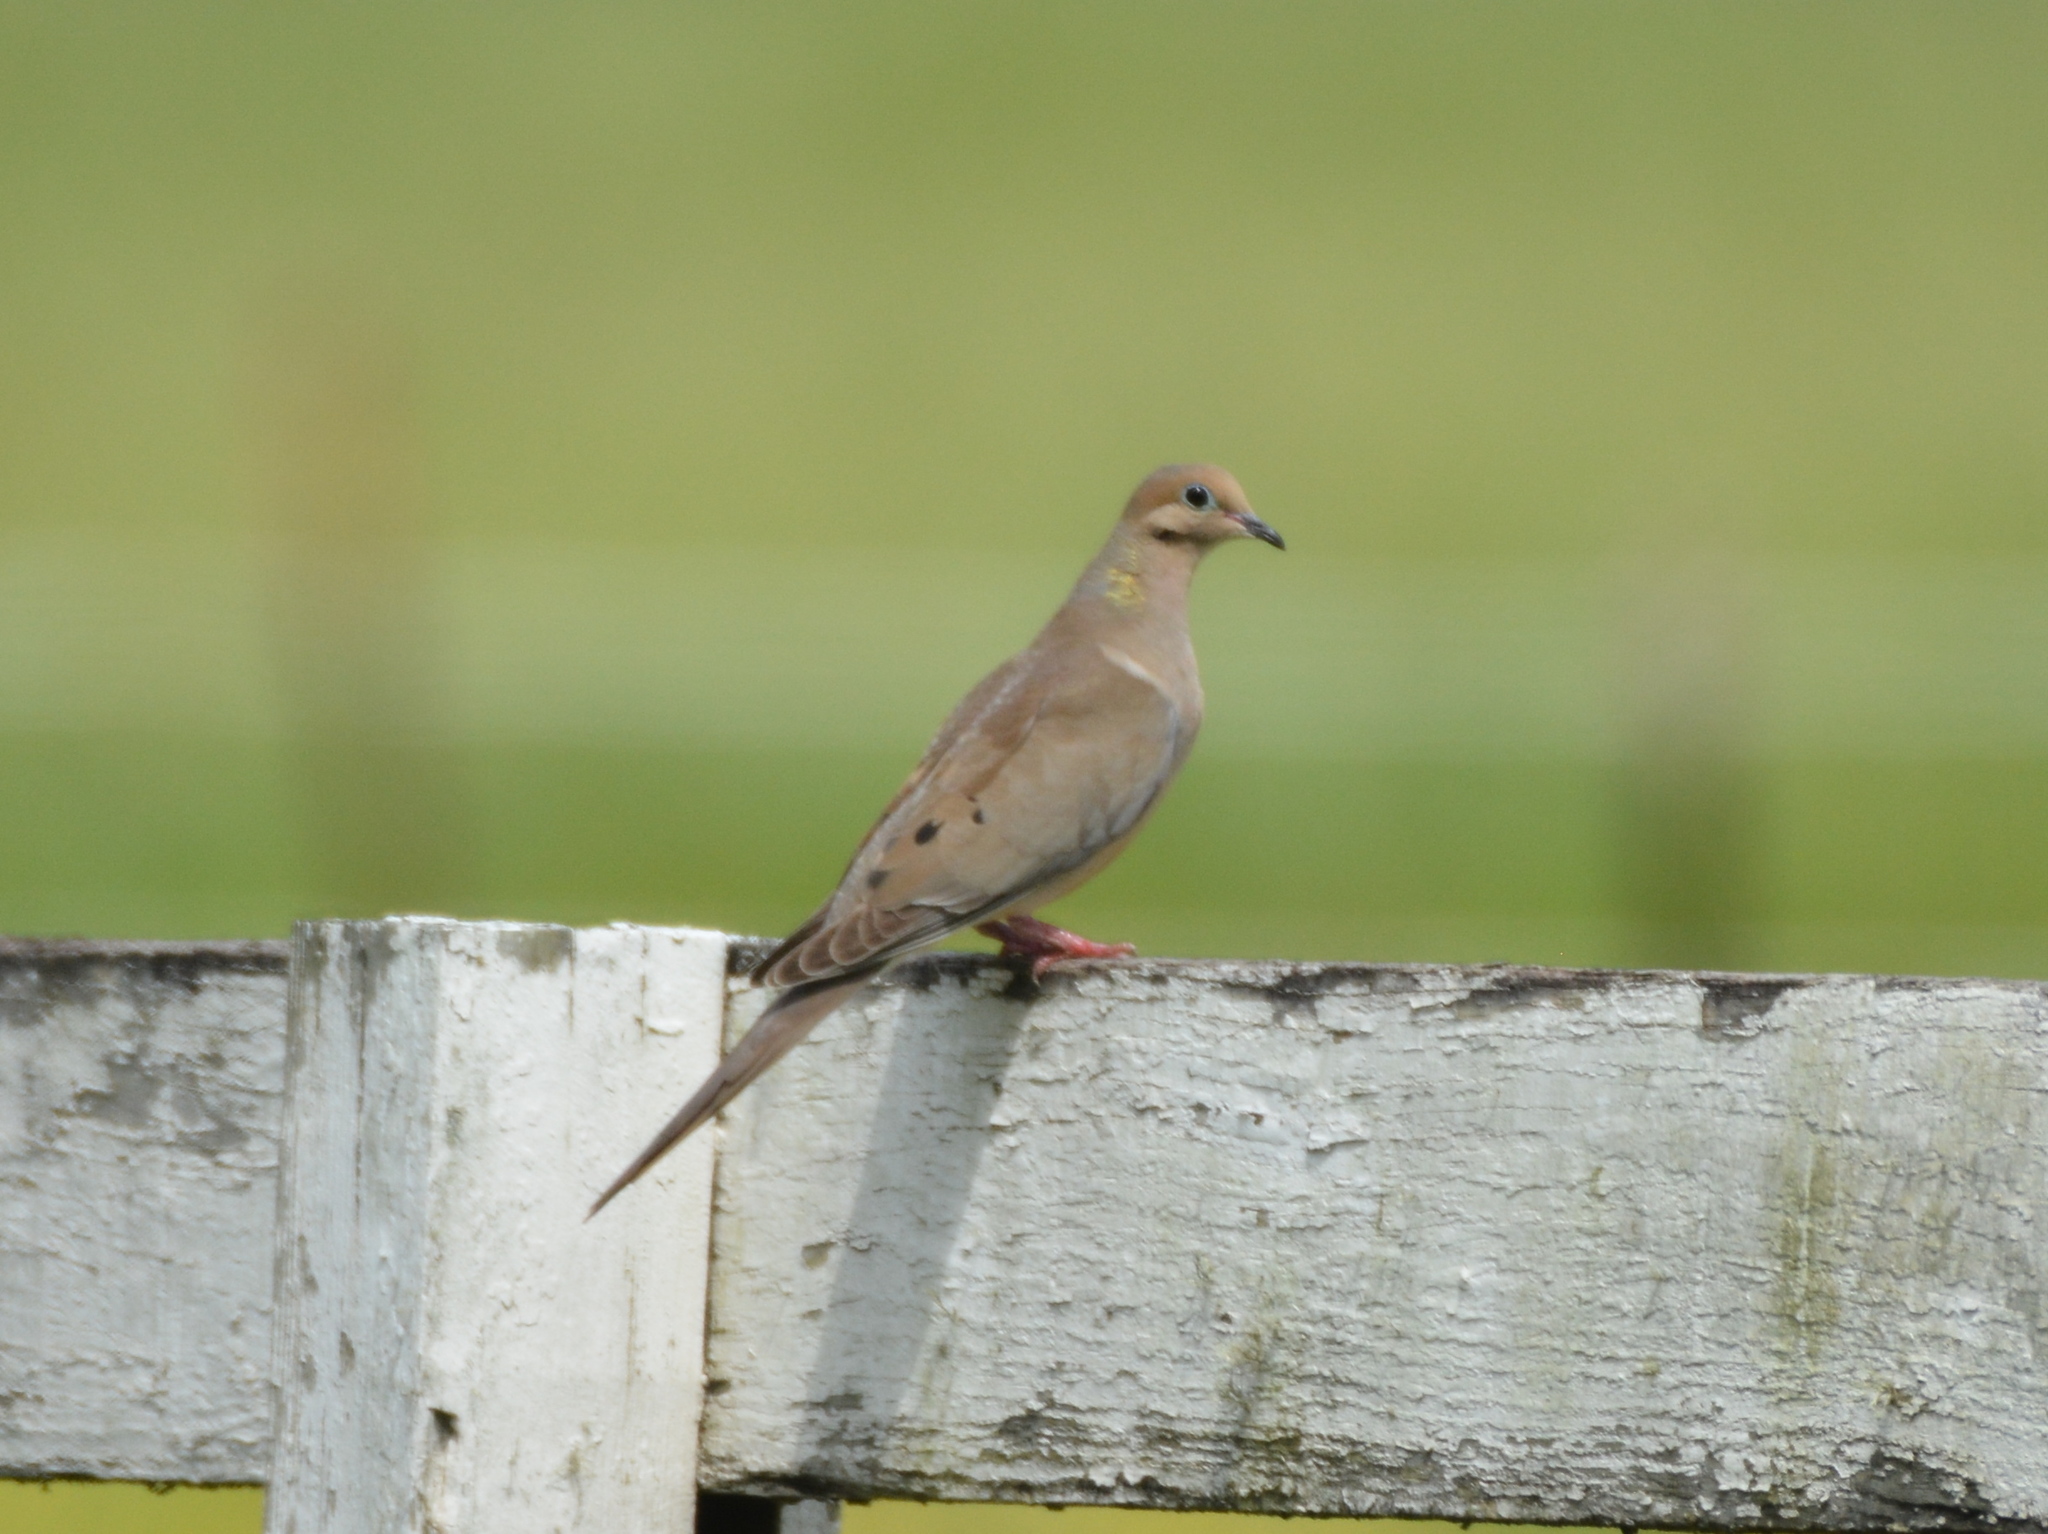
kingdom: Animalia
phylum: Chordata
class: Aves
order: Columbiformes
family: Columbidae
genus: Zenaida
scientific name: Zenaida macroura
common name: Mourning dove
